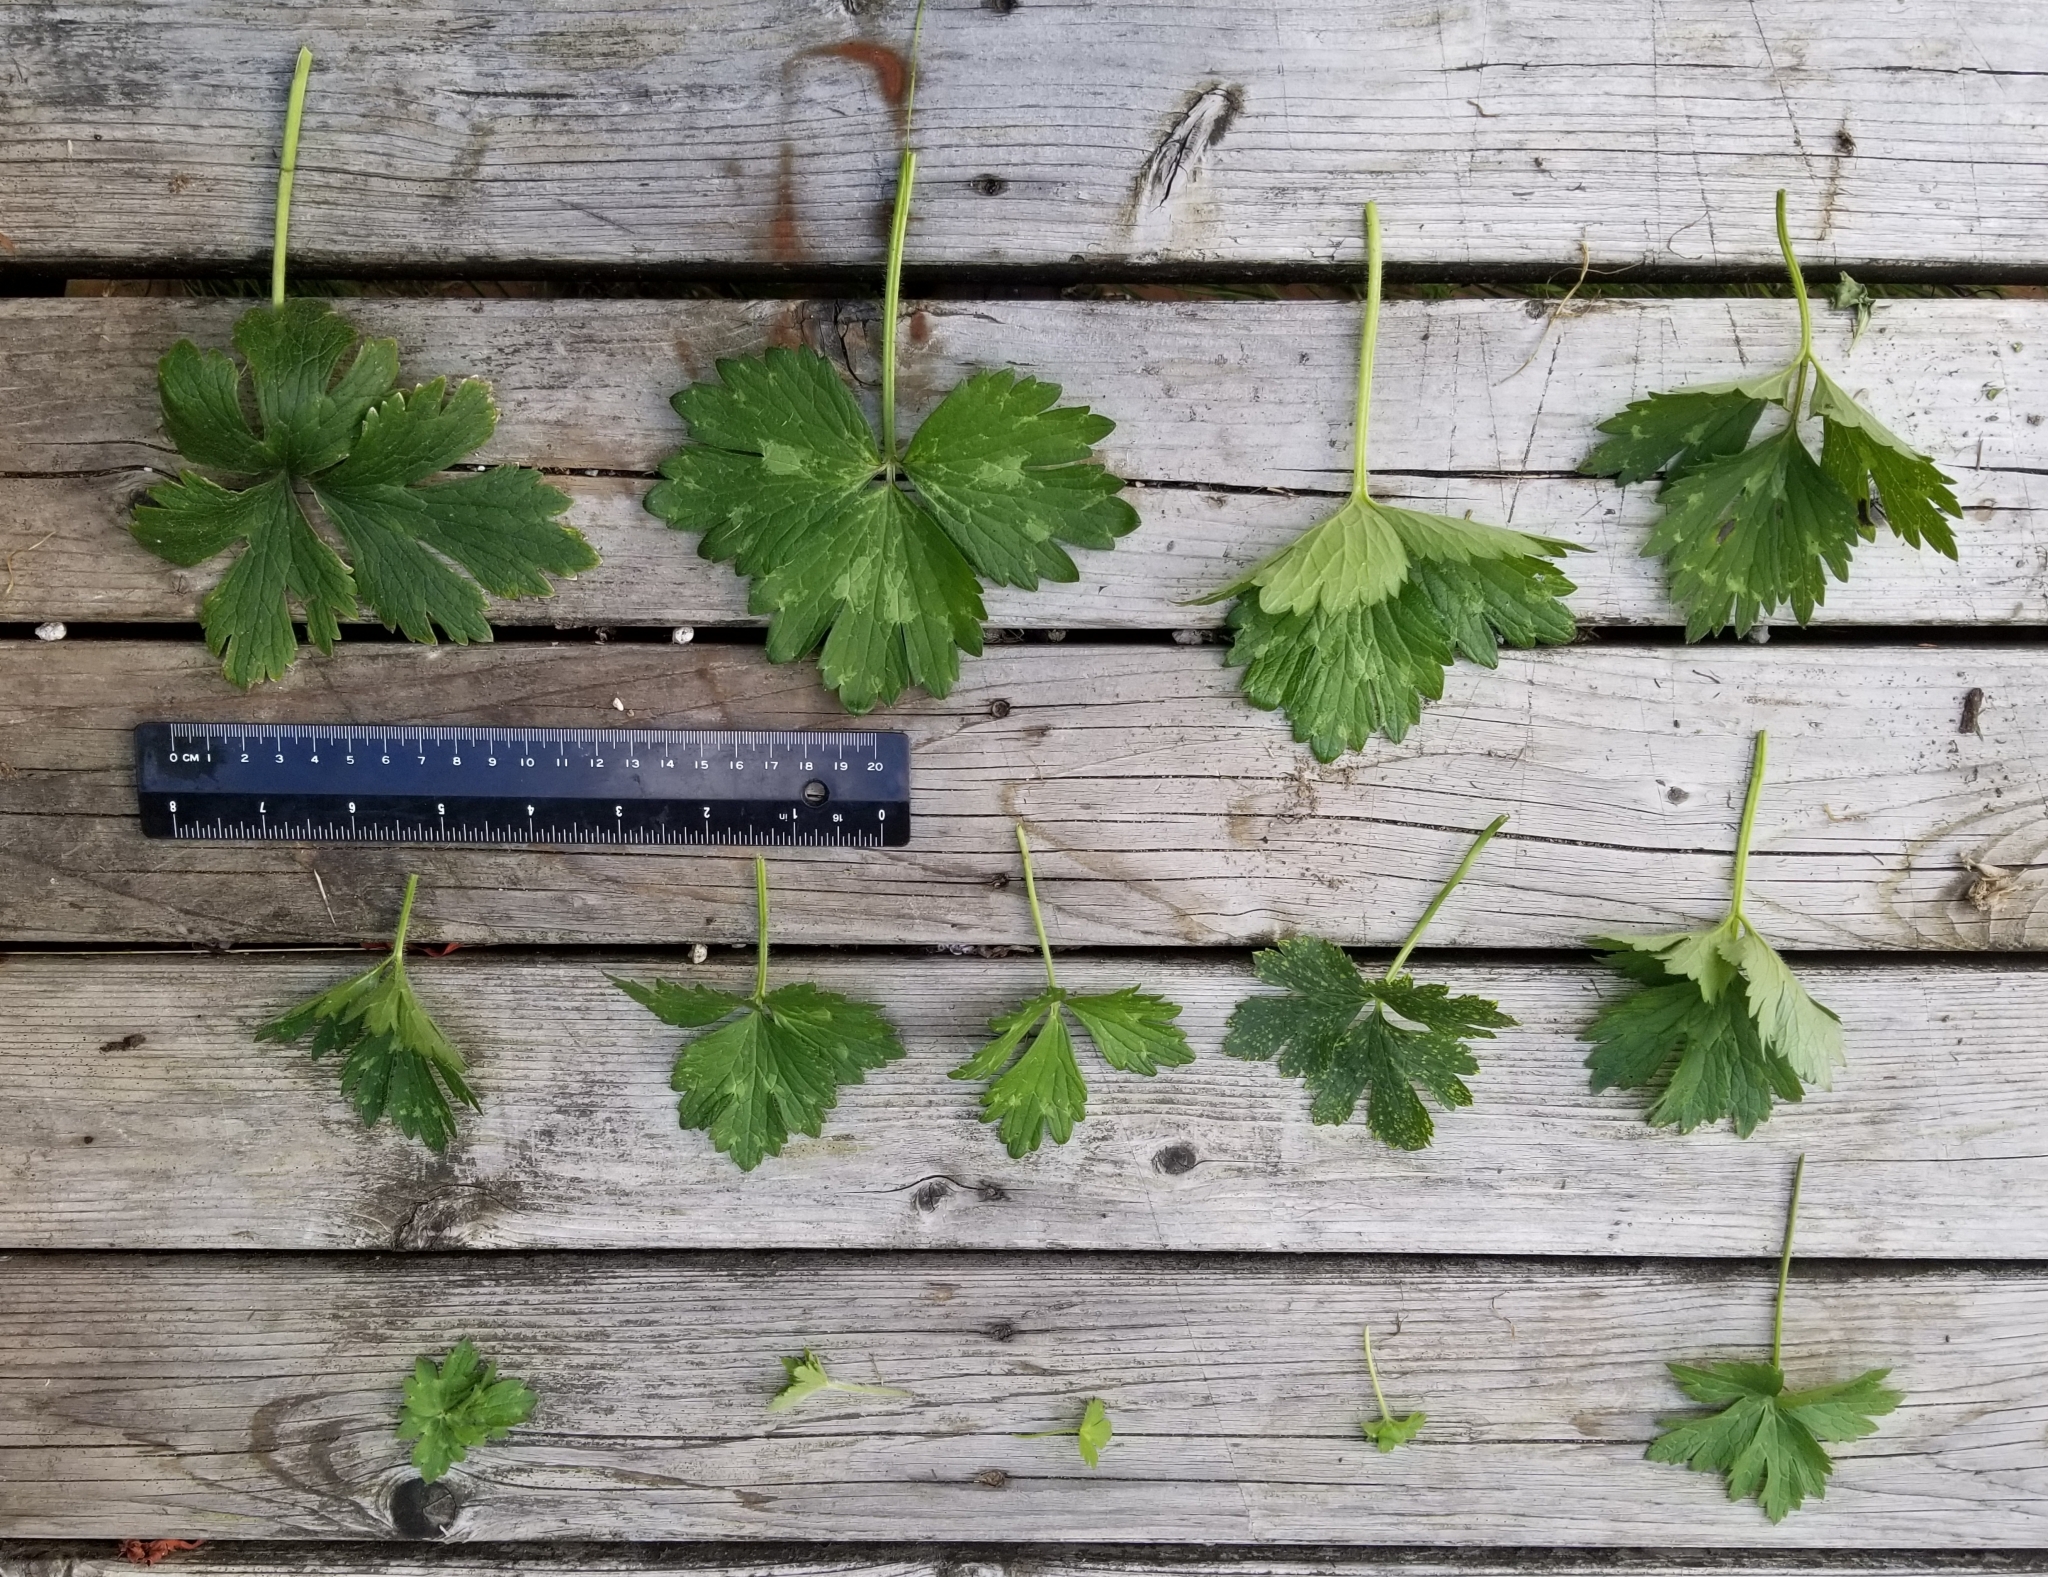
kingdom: Plantae
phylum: Tracheophyta
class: Magnoliopsida
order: Ranunculales
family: Ranunculaceae
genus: Ranunculus
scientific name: Ranunculus repens
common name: Creeping buttercup
